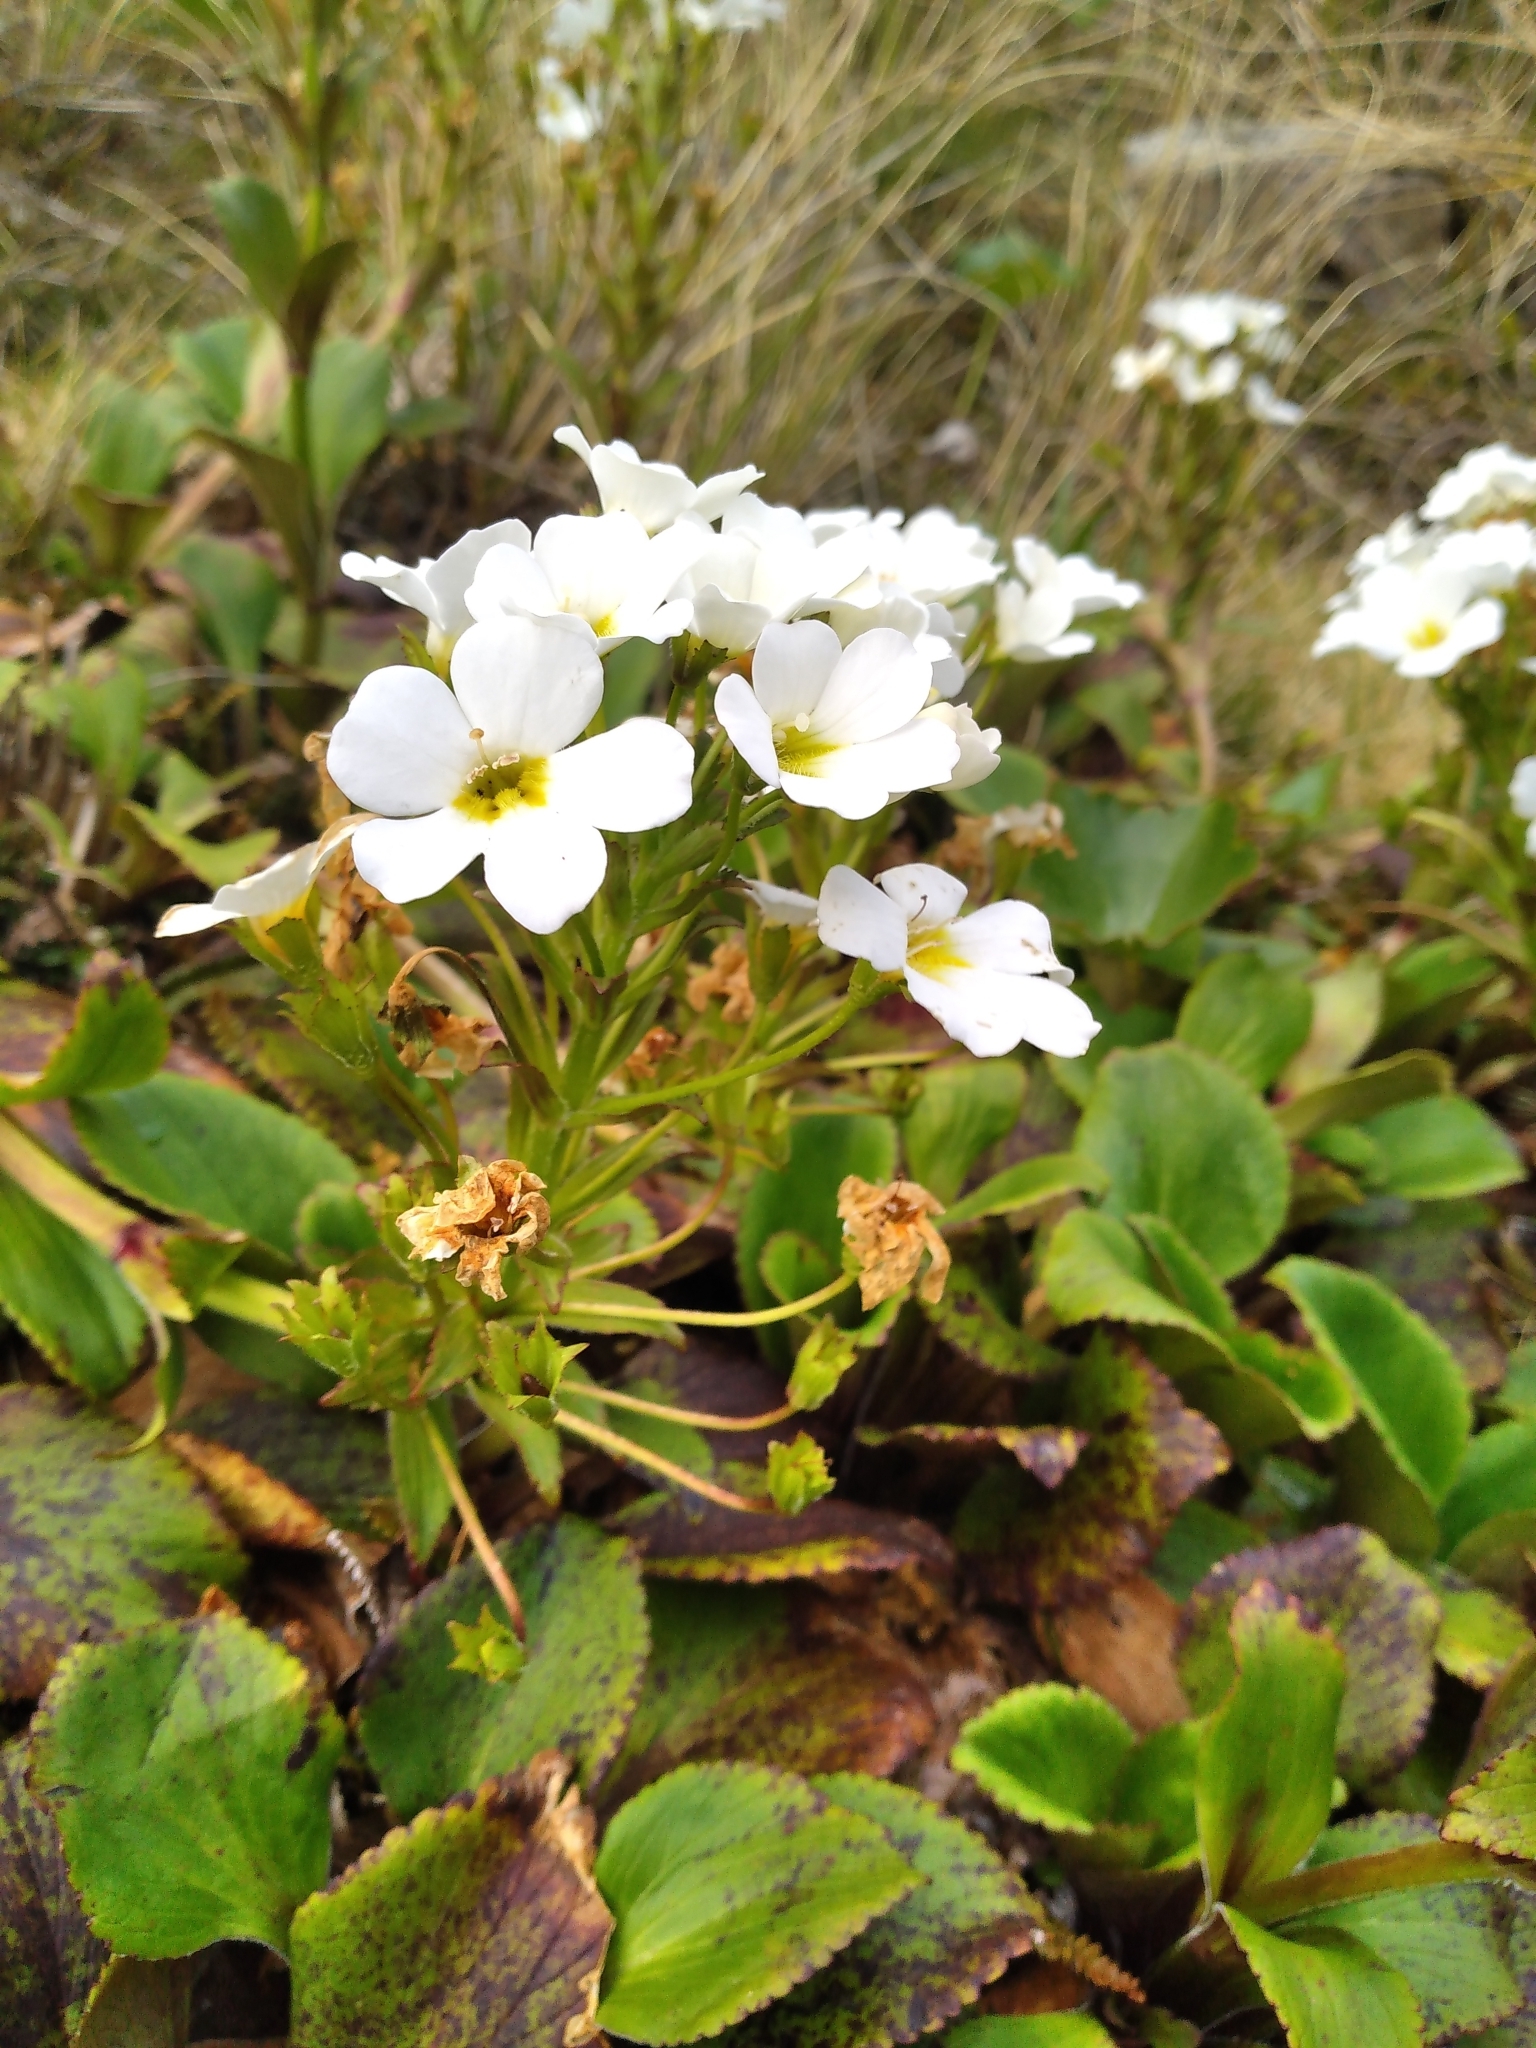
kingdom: Plantae
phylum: Tracheophyta
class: Magnoliopsida
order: Lamiales
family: Plantaginaceae
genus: Ourisia
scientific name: Ourisia calycina
